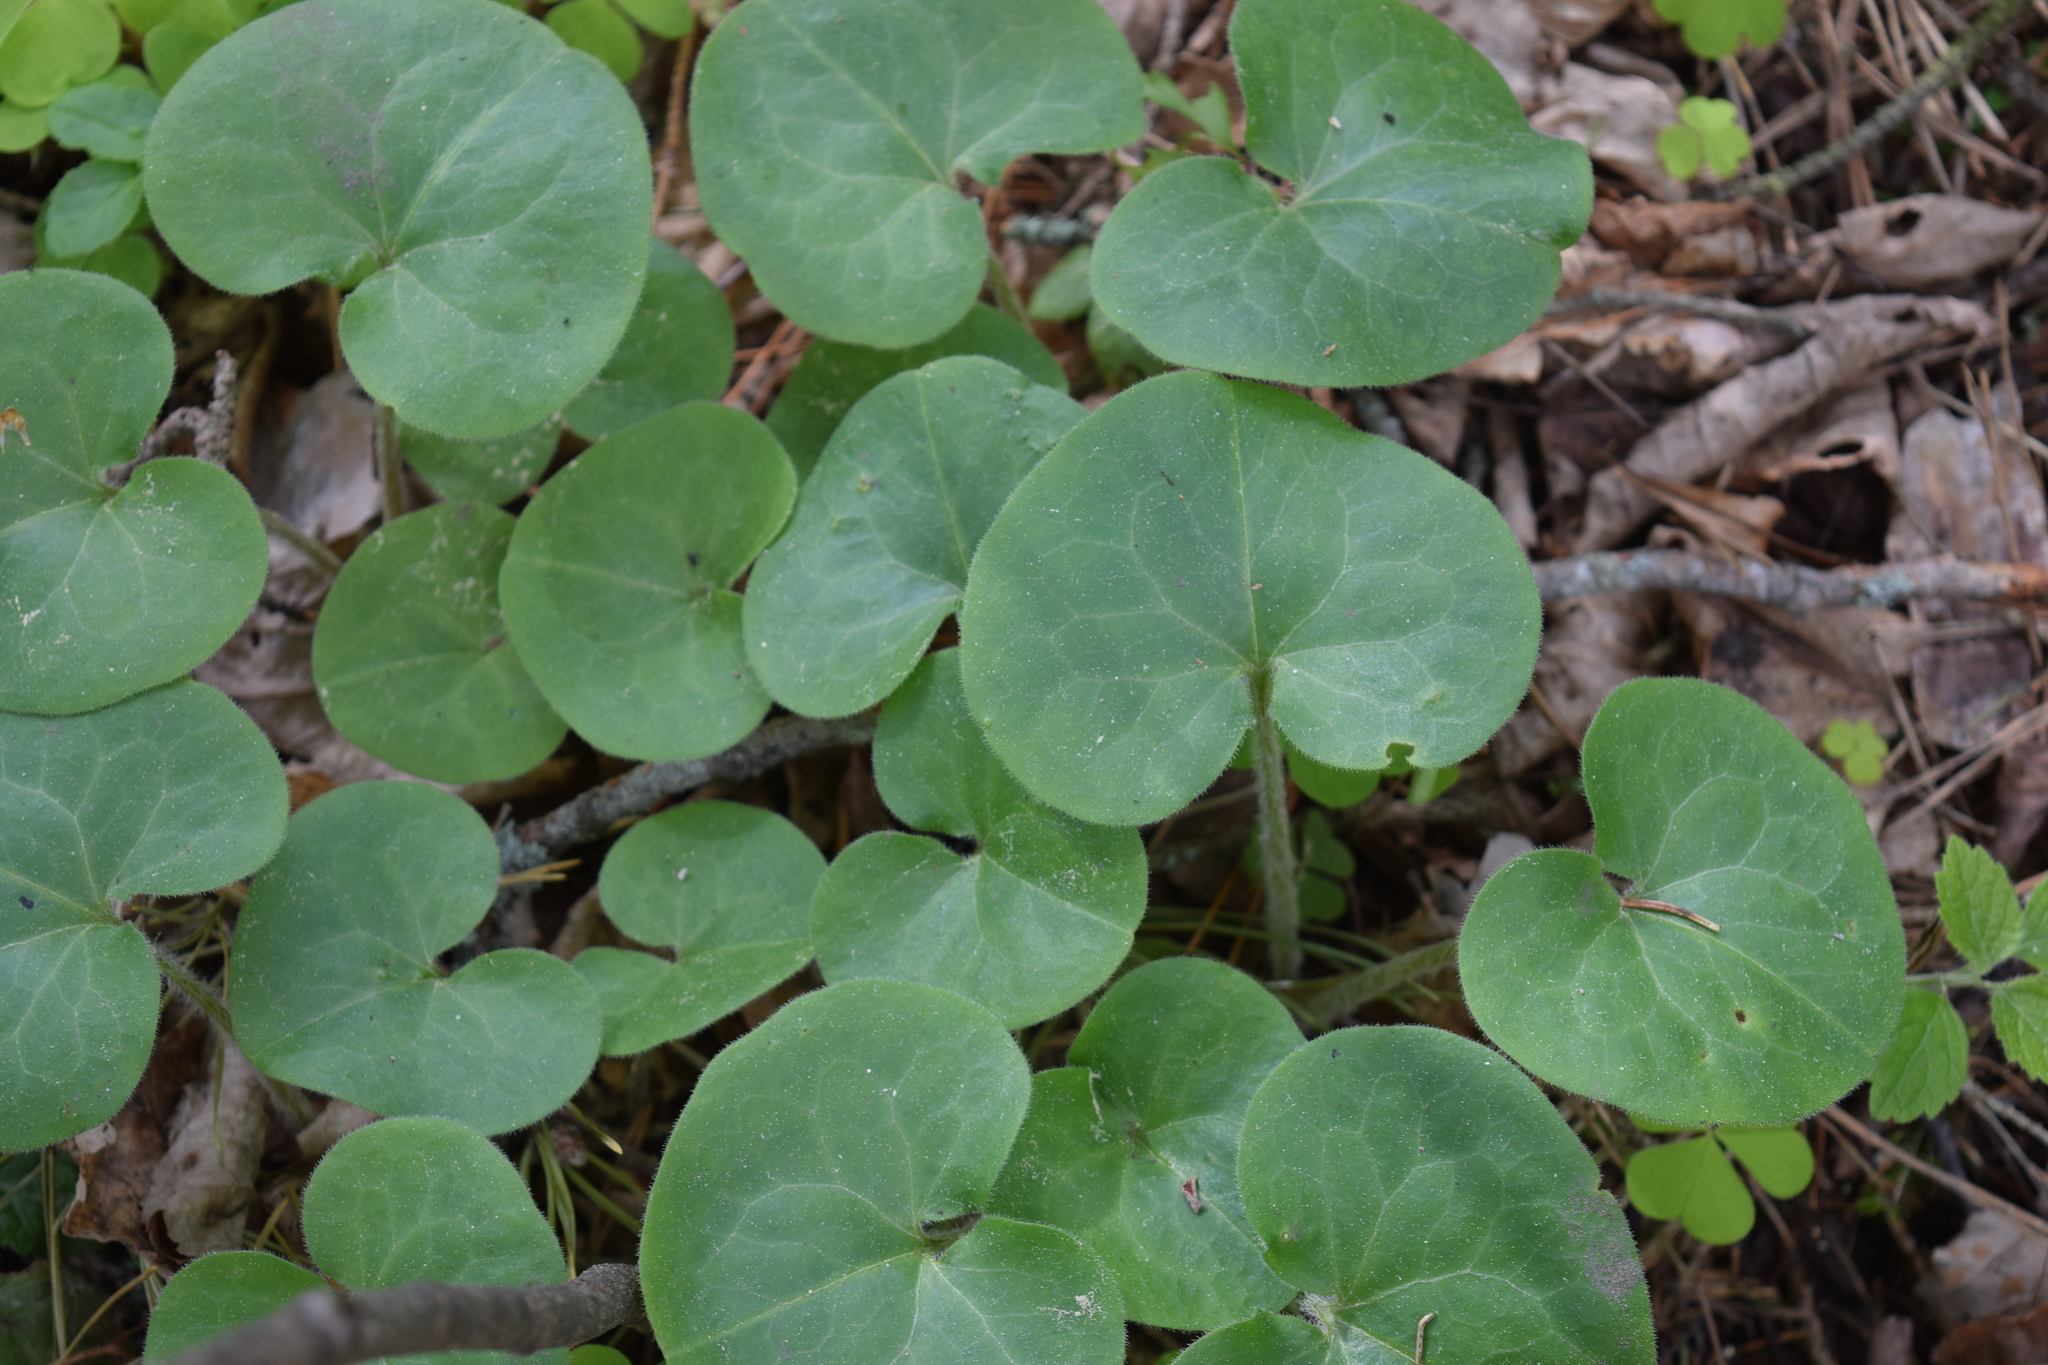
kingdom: Plantae
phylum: Tracheophyta
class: Magnoliopsida
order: Piperales
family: Aristolochiaceae
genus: Asarum
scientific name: Asarum europaeum
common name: Asarabacca
